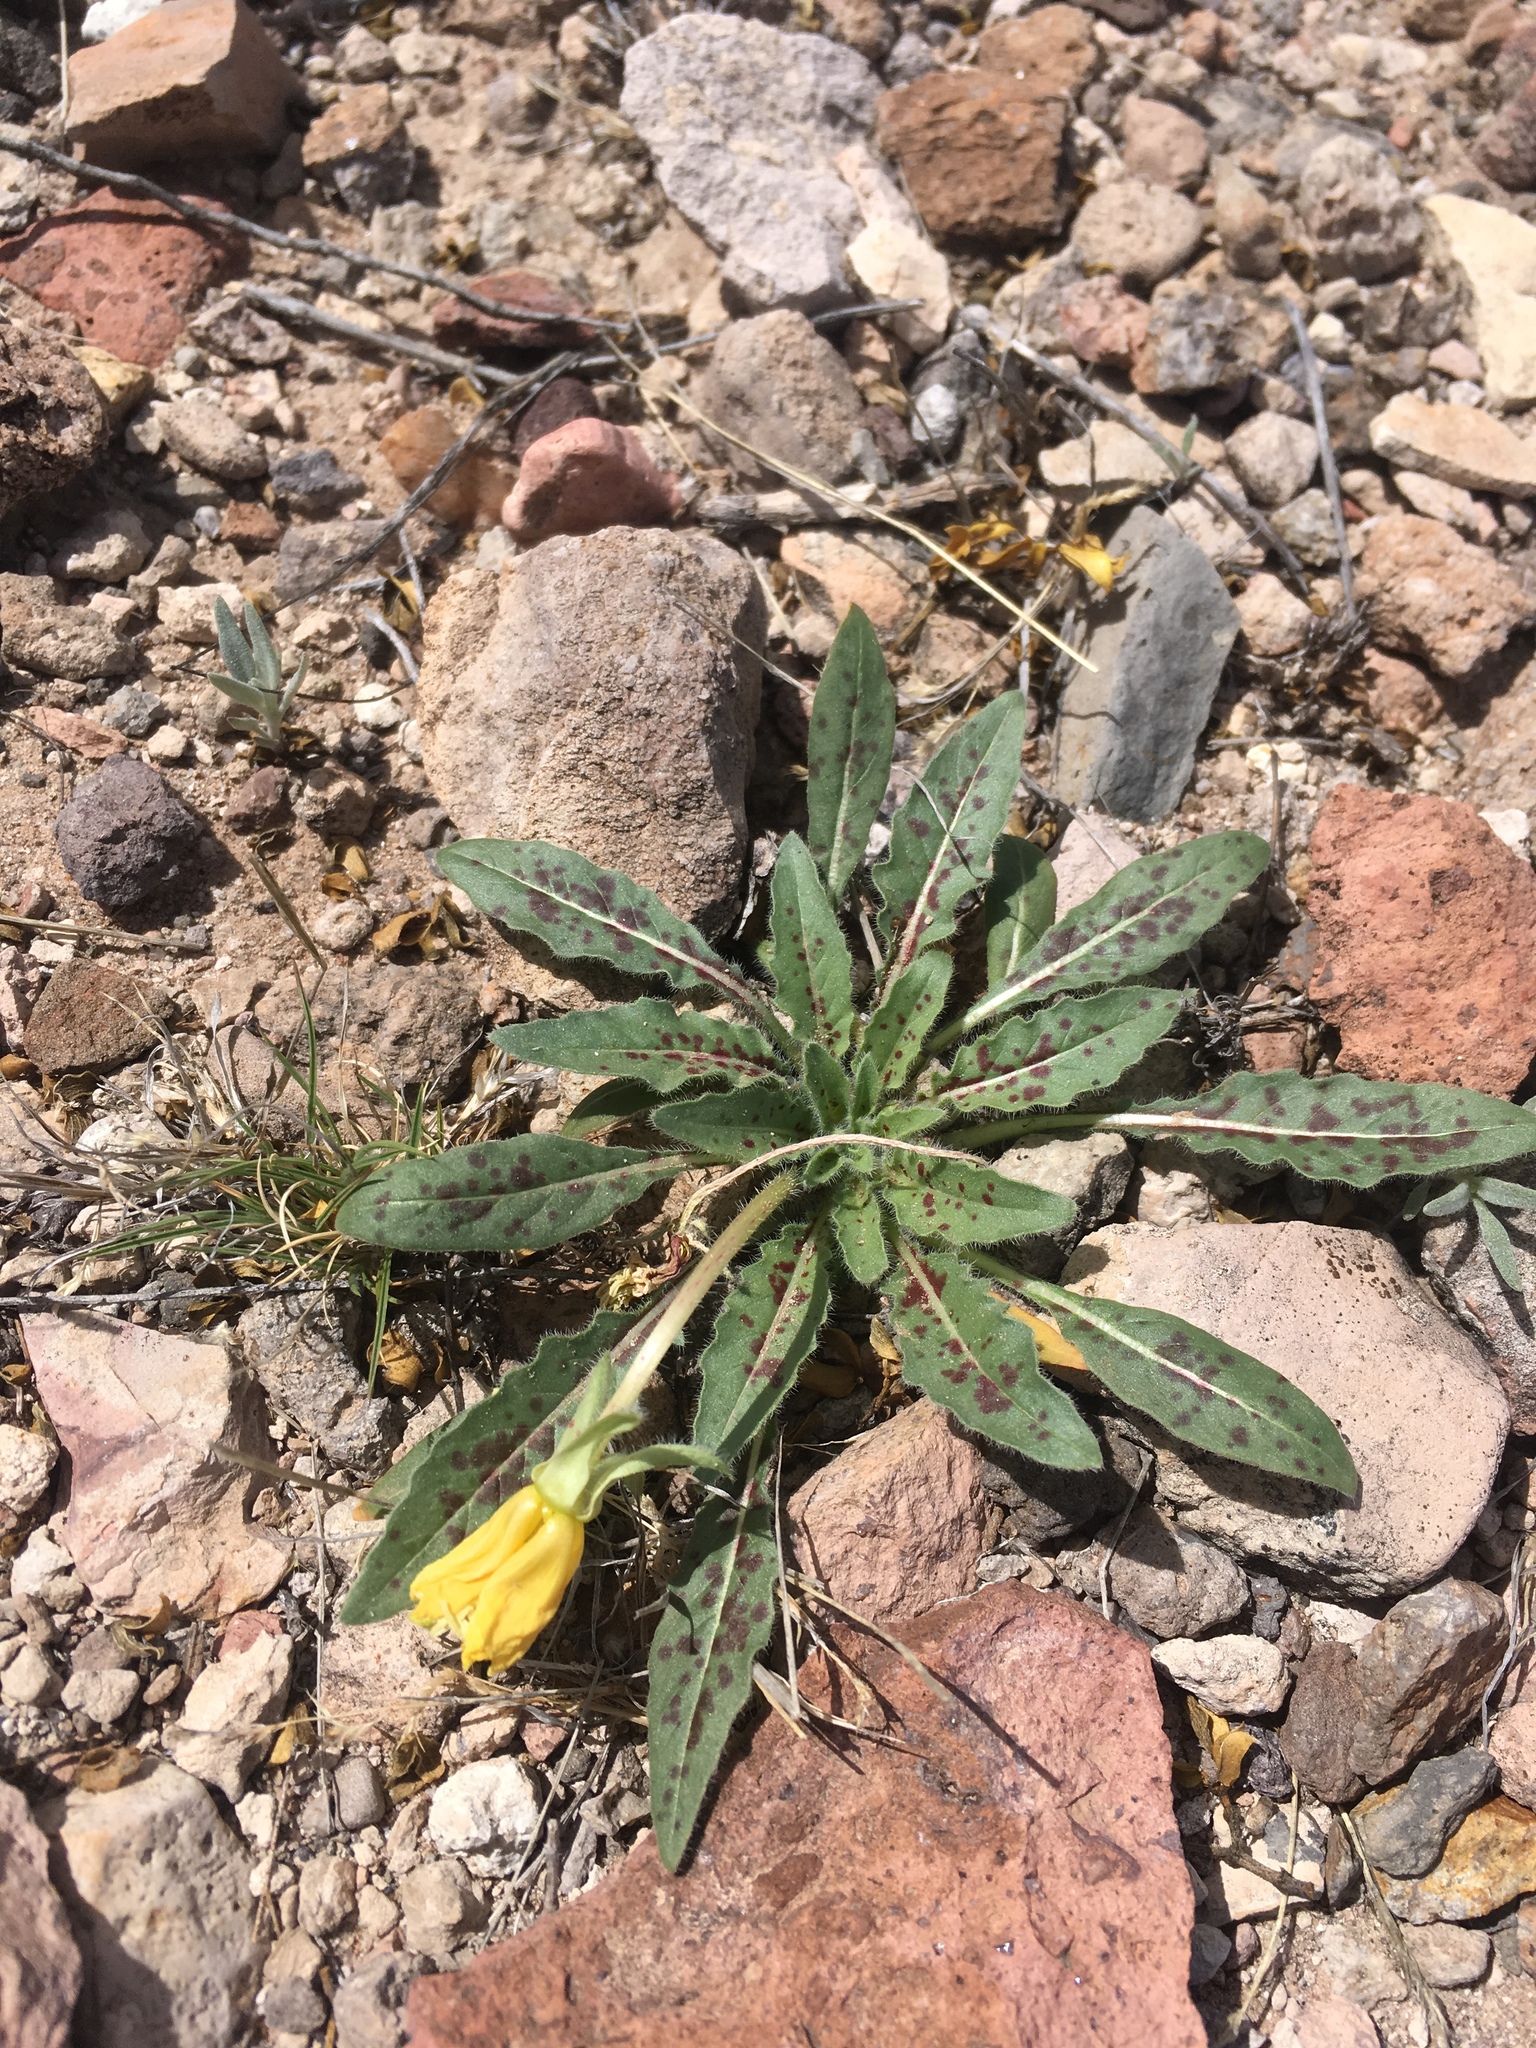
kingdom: Plantae
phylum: Tracheophyta
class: Magnoliopsida
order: Myrtales
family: Onagraceae
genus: Oenothera
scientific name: Oenothera primiveris
